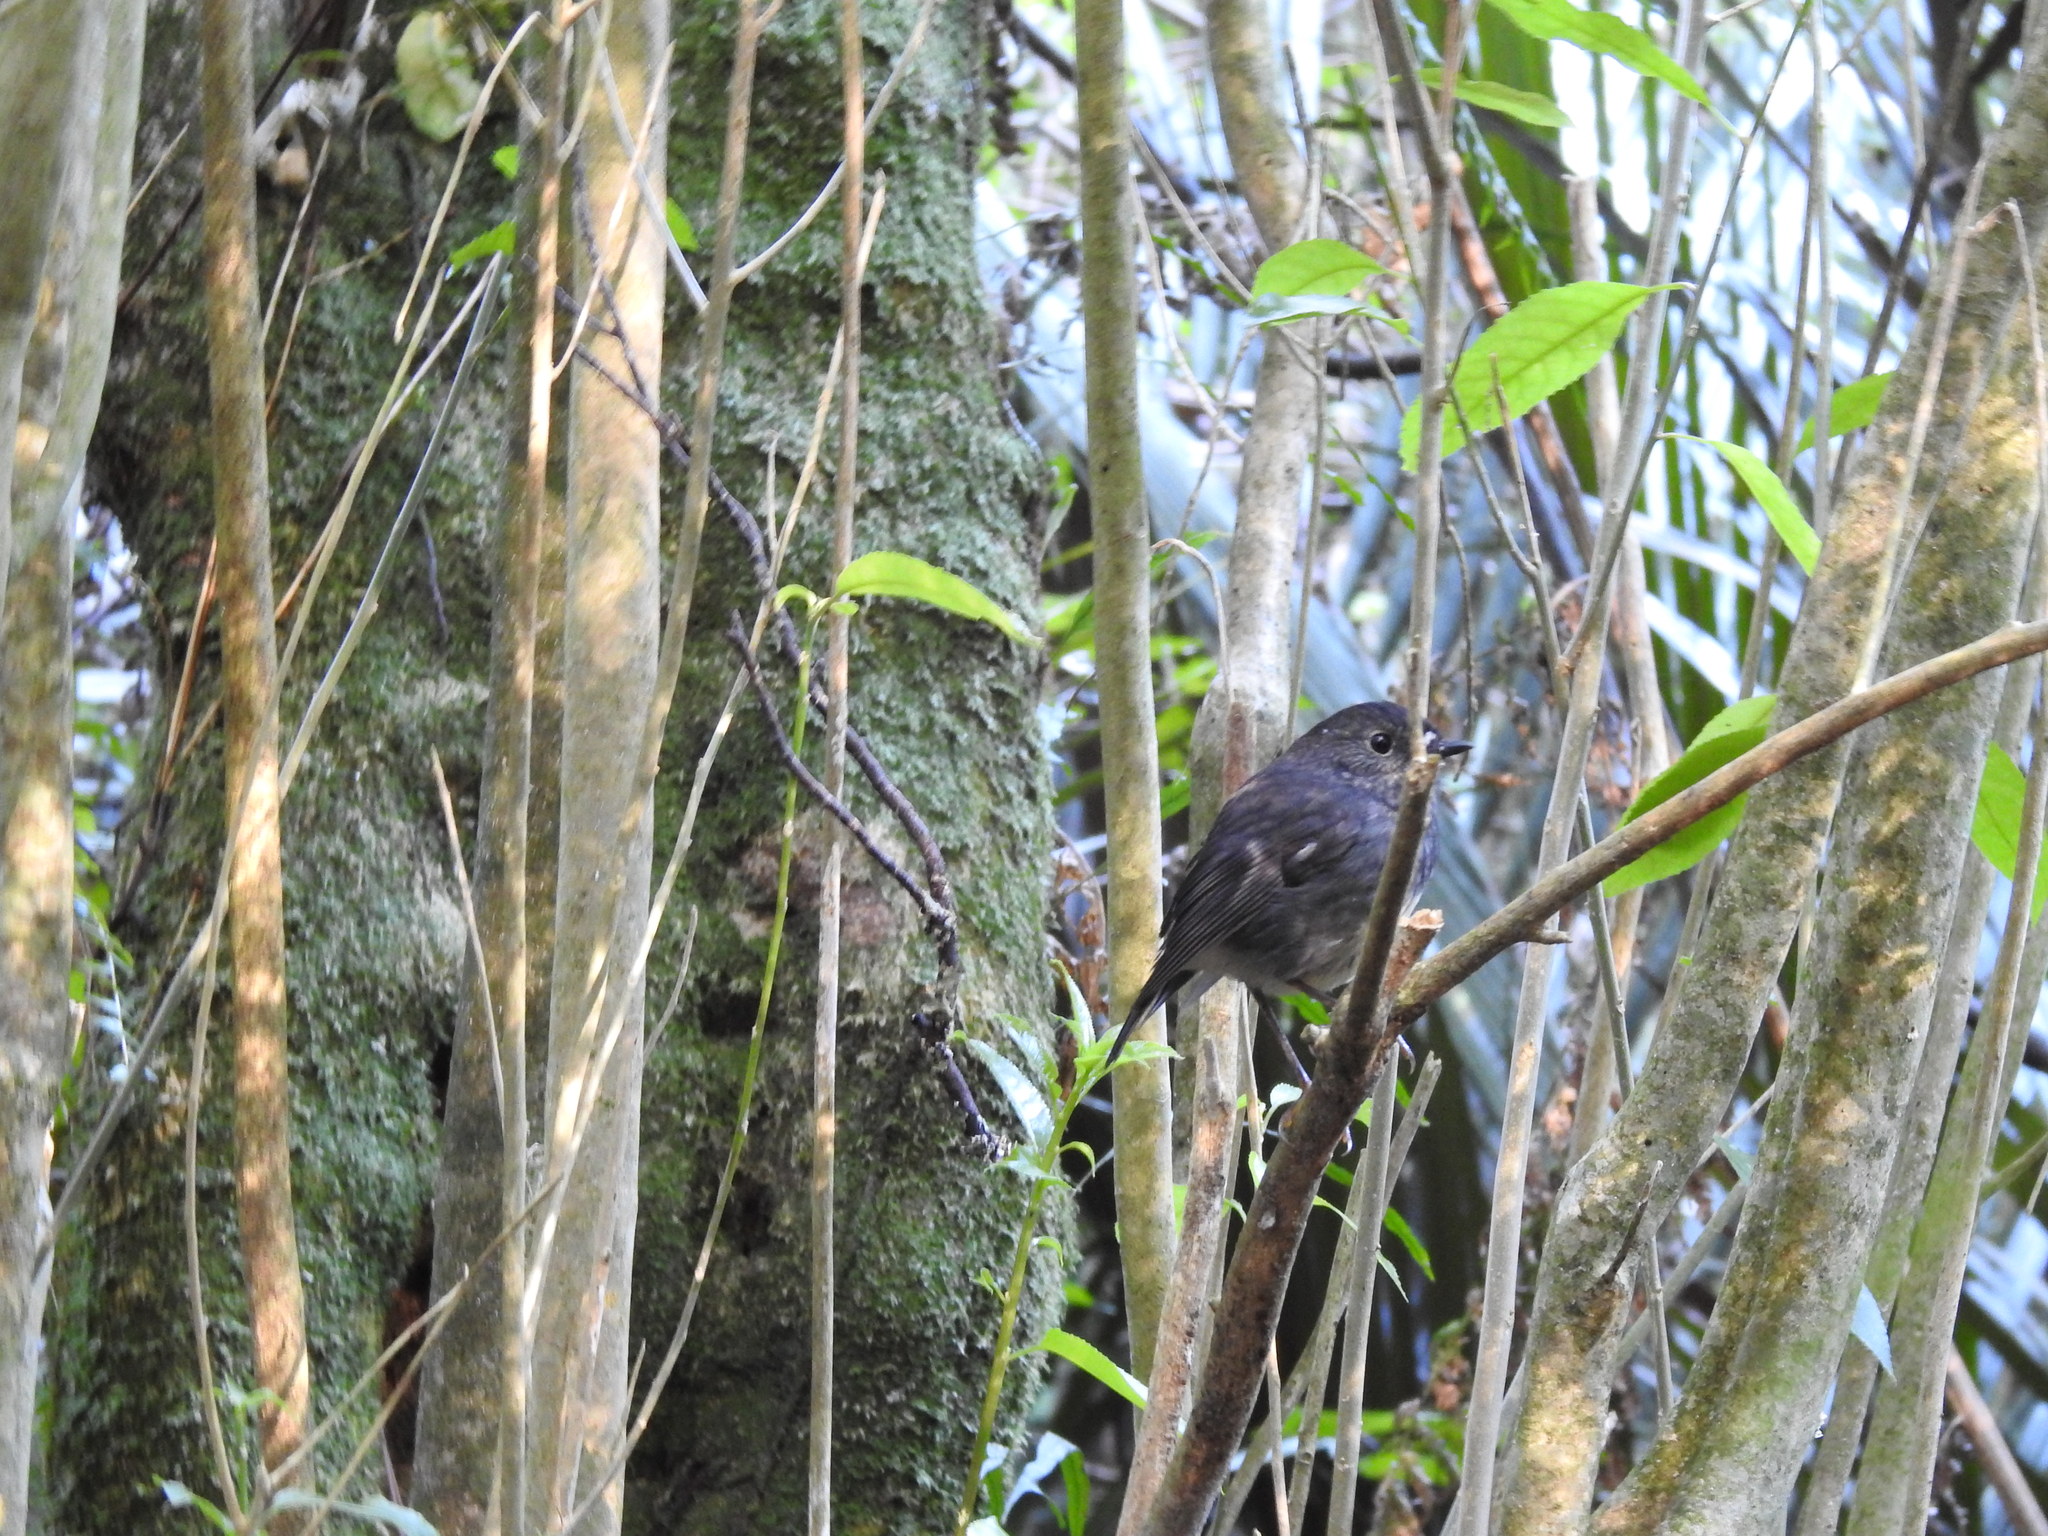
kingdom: Animalia
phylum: Chordata
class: Aves
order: Passeriformes
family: Petroicidae
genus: Petroica
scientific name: Petroica australis
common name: New zealand robin
